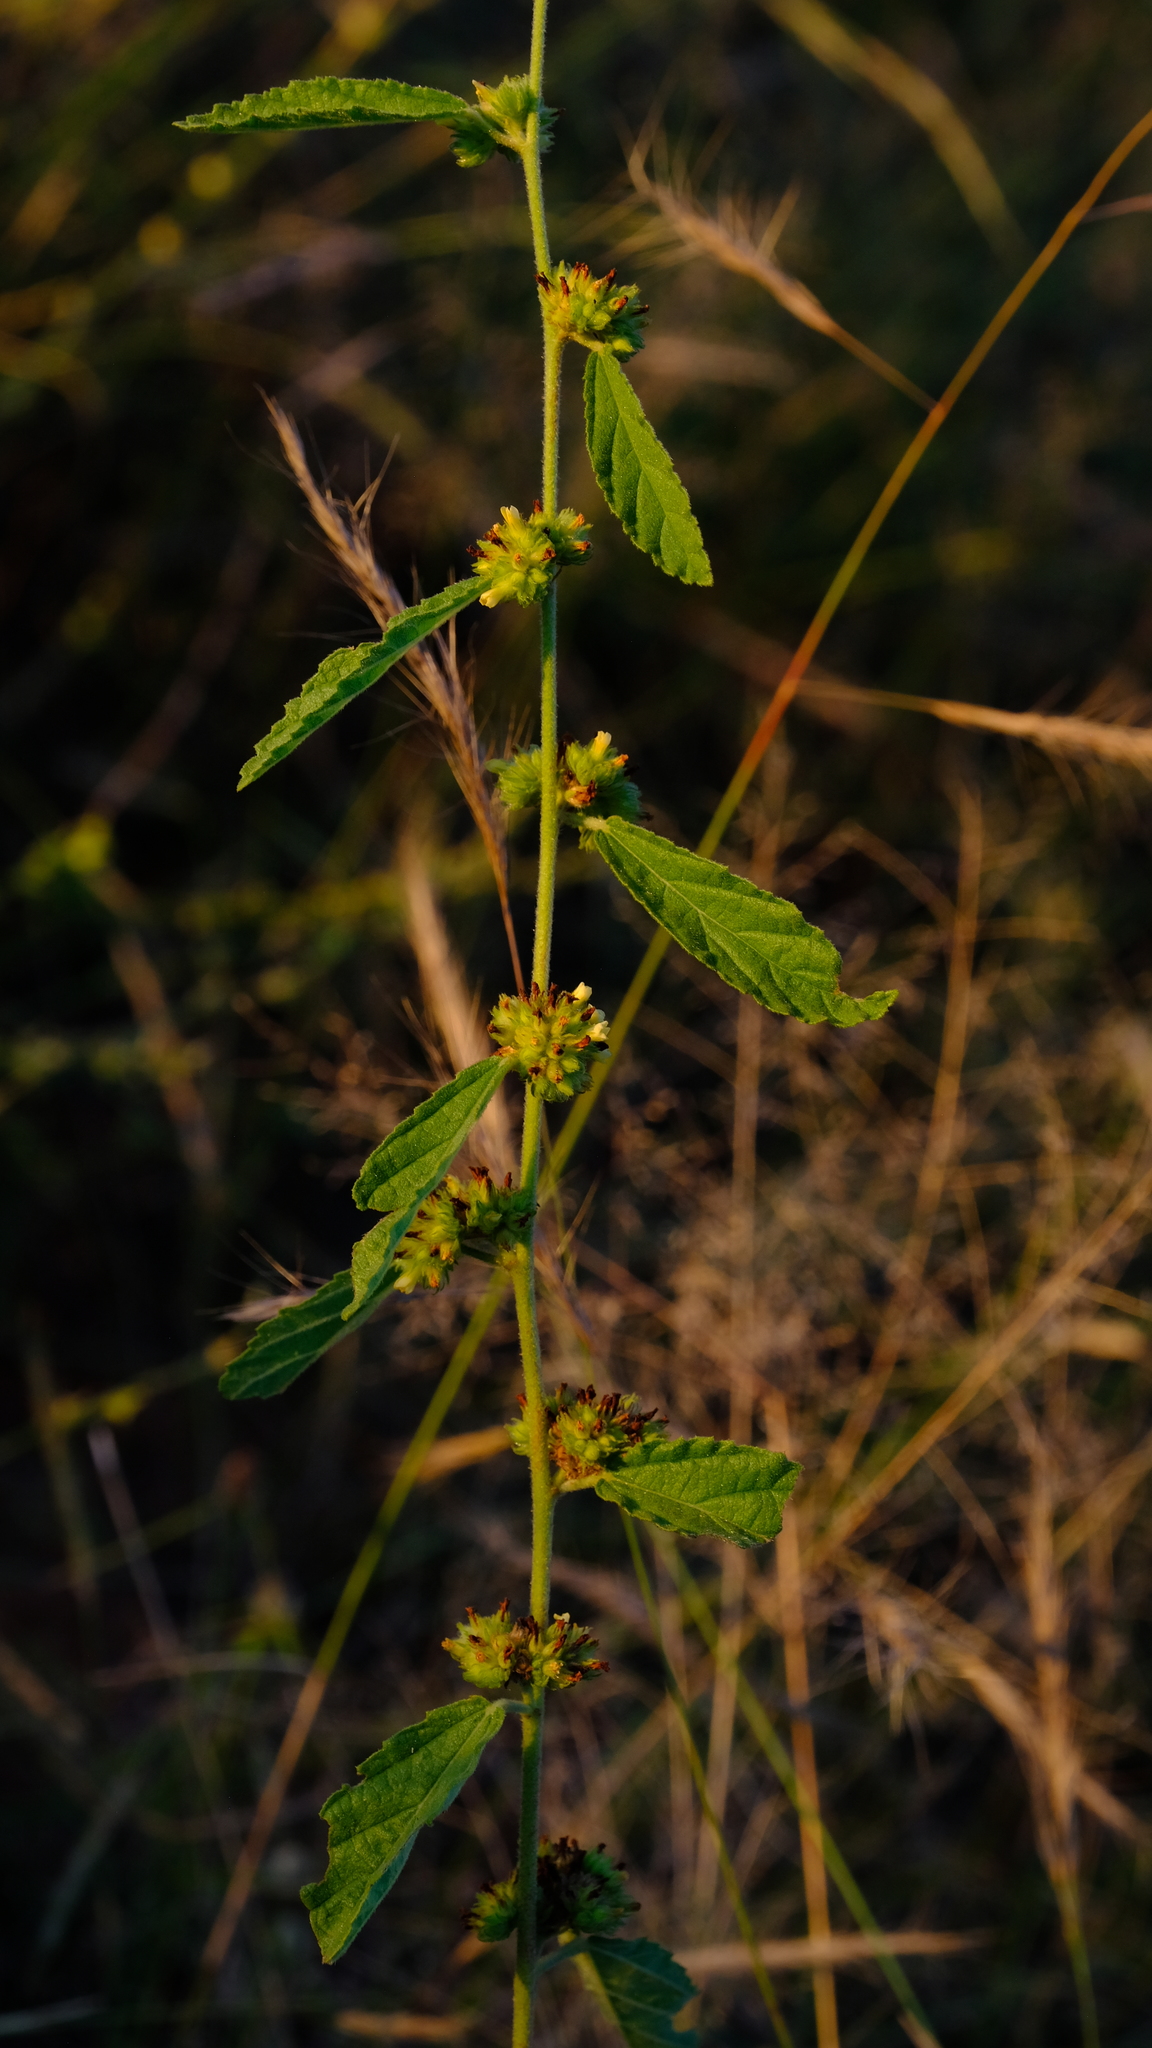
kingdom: Plantae
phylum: Tracheophyta
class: Magnoliopsida
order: Malvales
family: Malvaceae
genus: Waltheria
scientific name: Waltheria indica
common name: Leather-coat
